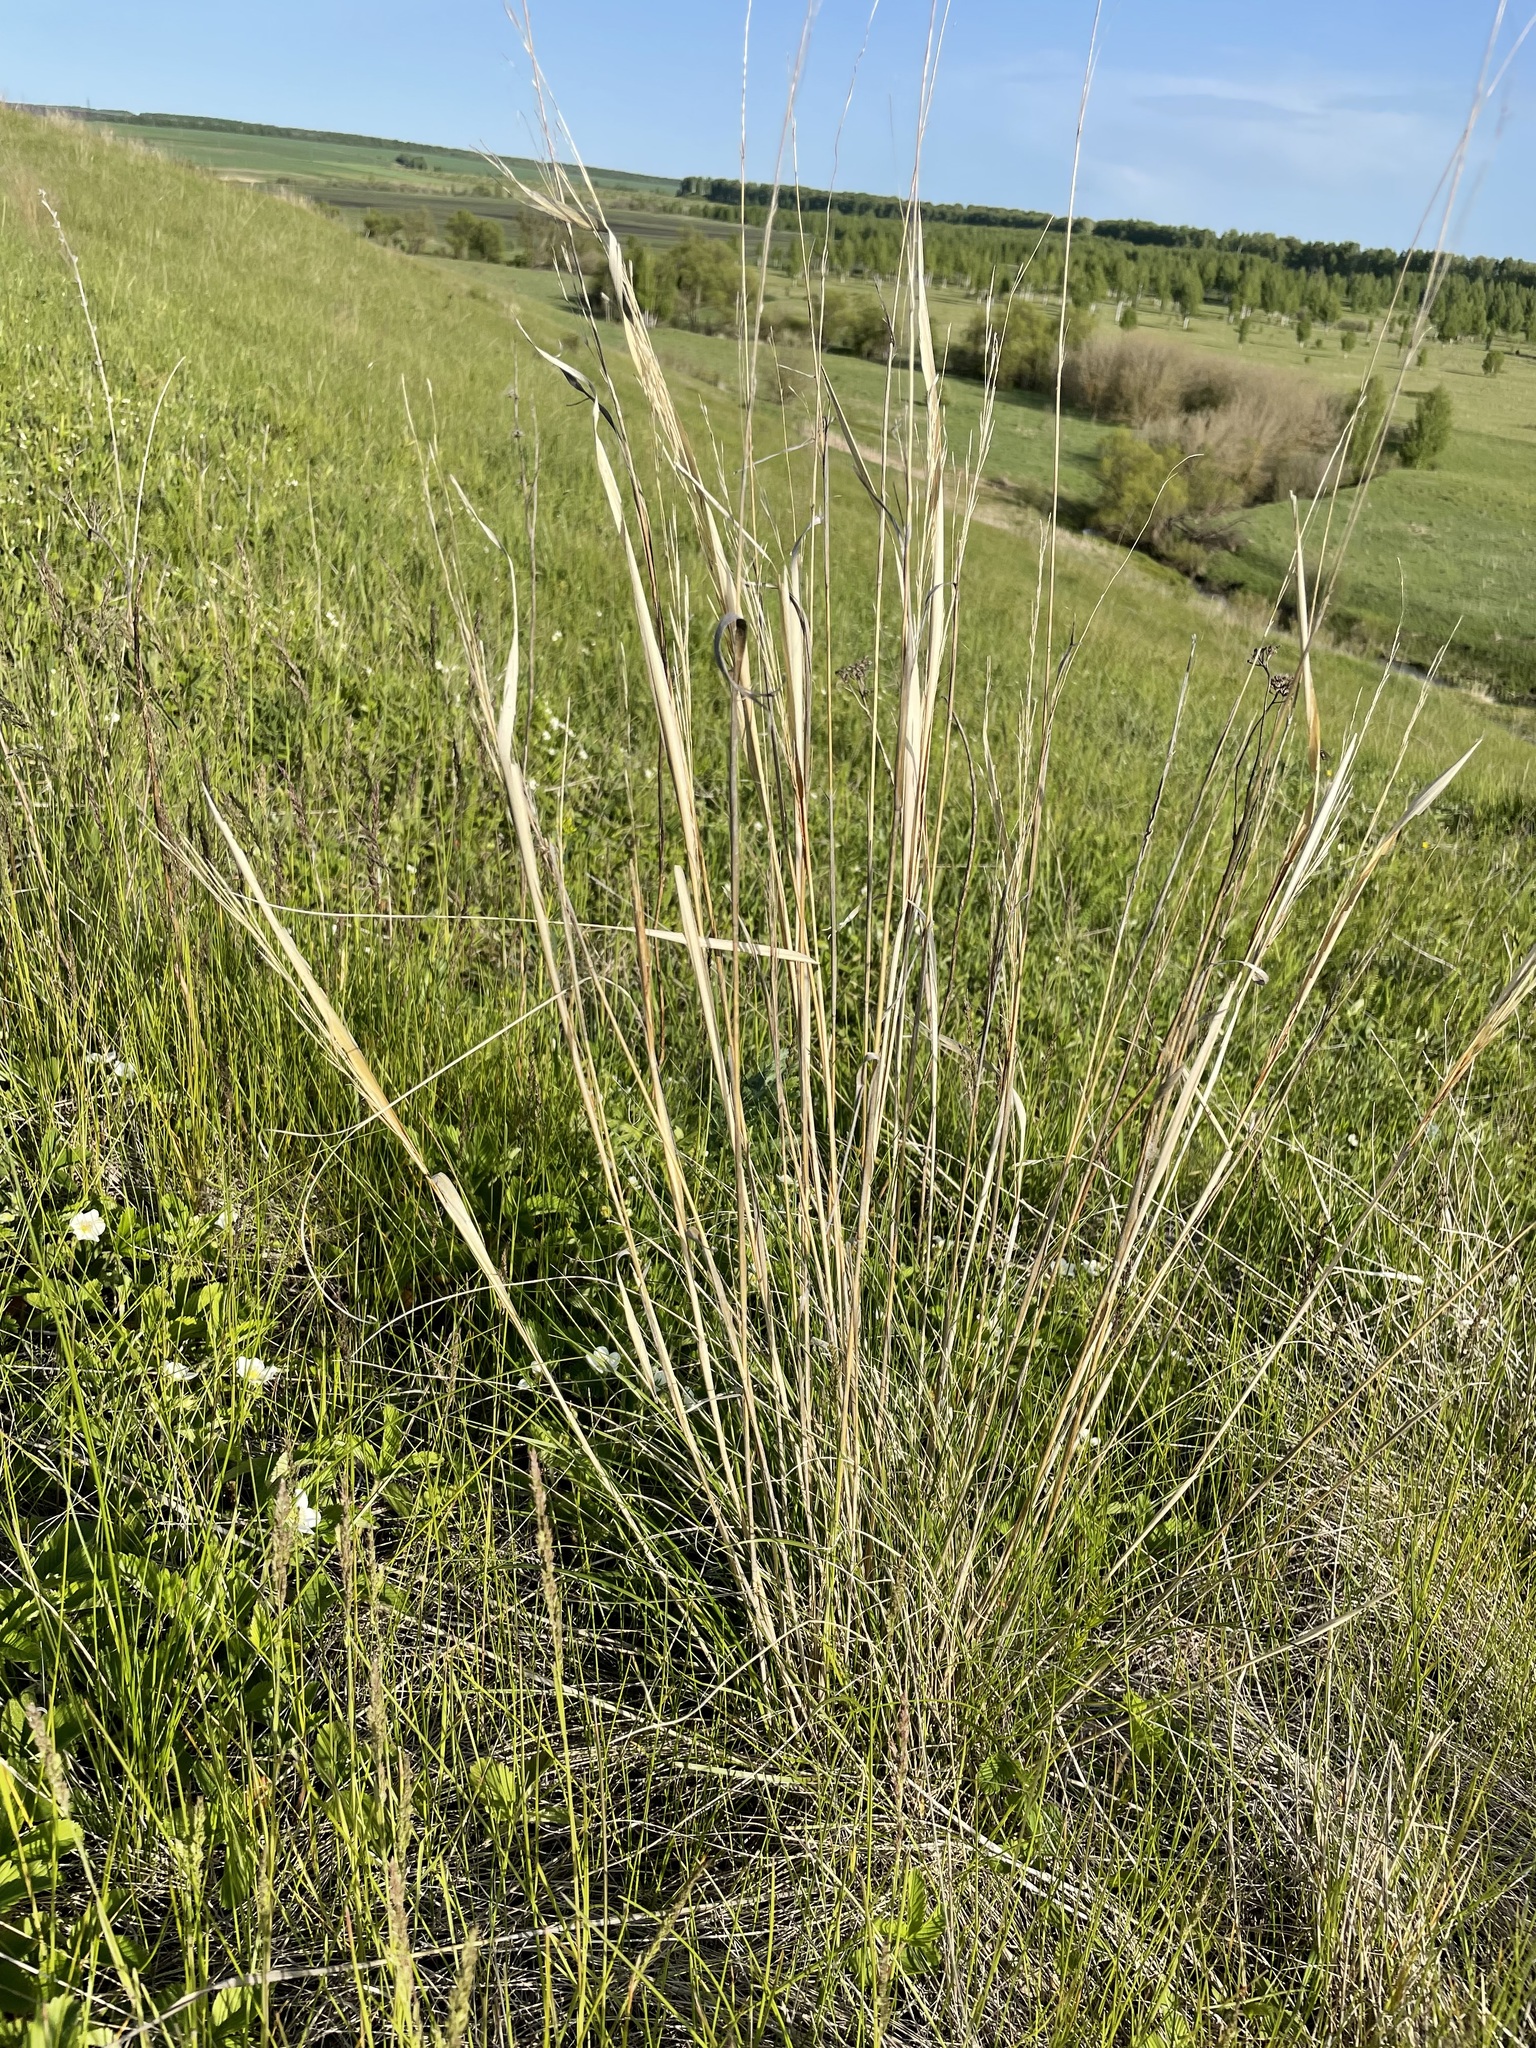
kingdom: Plantae
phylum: Tracheophyta
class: Liliopsida
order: Poales
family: Poaceae
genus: Stipa
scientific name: Stipa capillata
